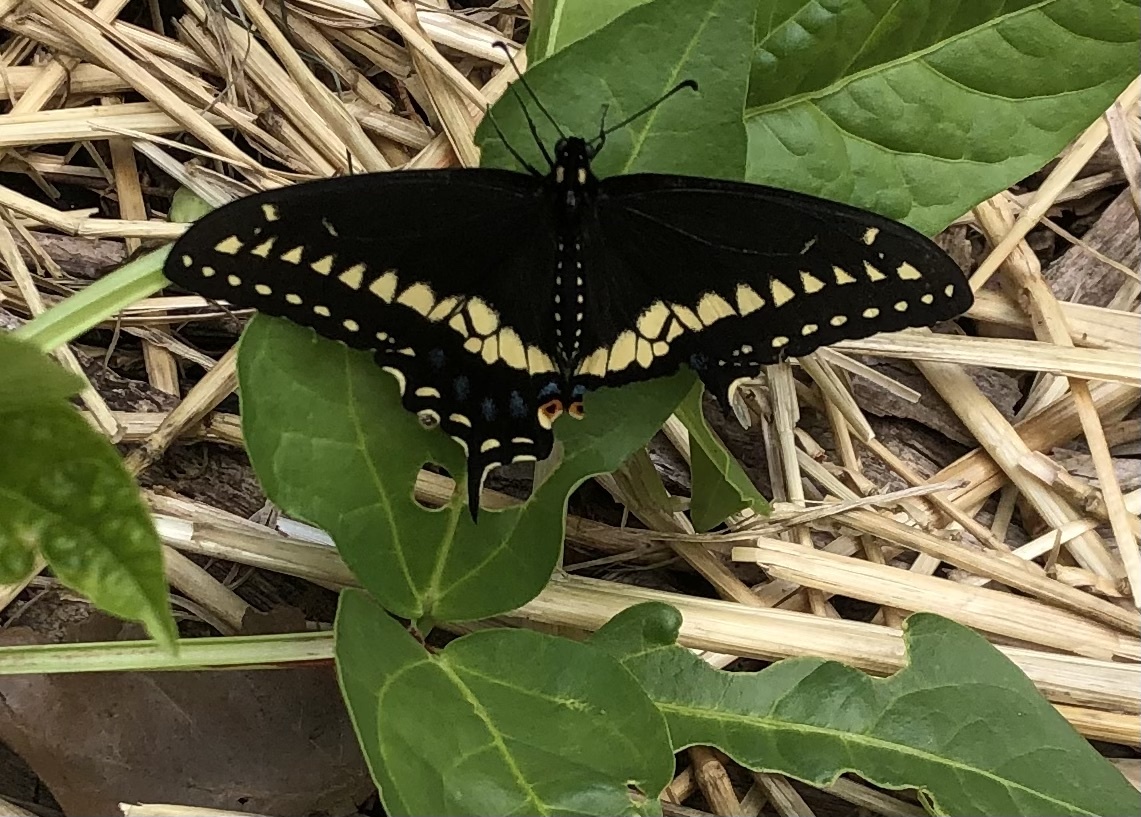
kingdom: Animalia
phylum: Arthropoda
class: Insecta
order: Lepidoptera
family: Papilionidae
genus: Papilio
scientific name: Papilio polyxenes
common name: Black swallowtail
